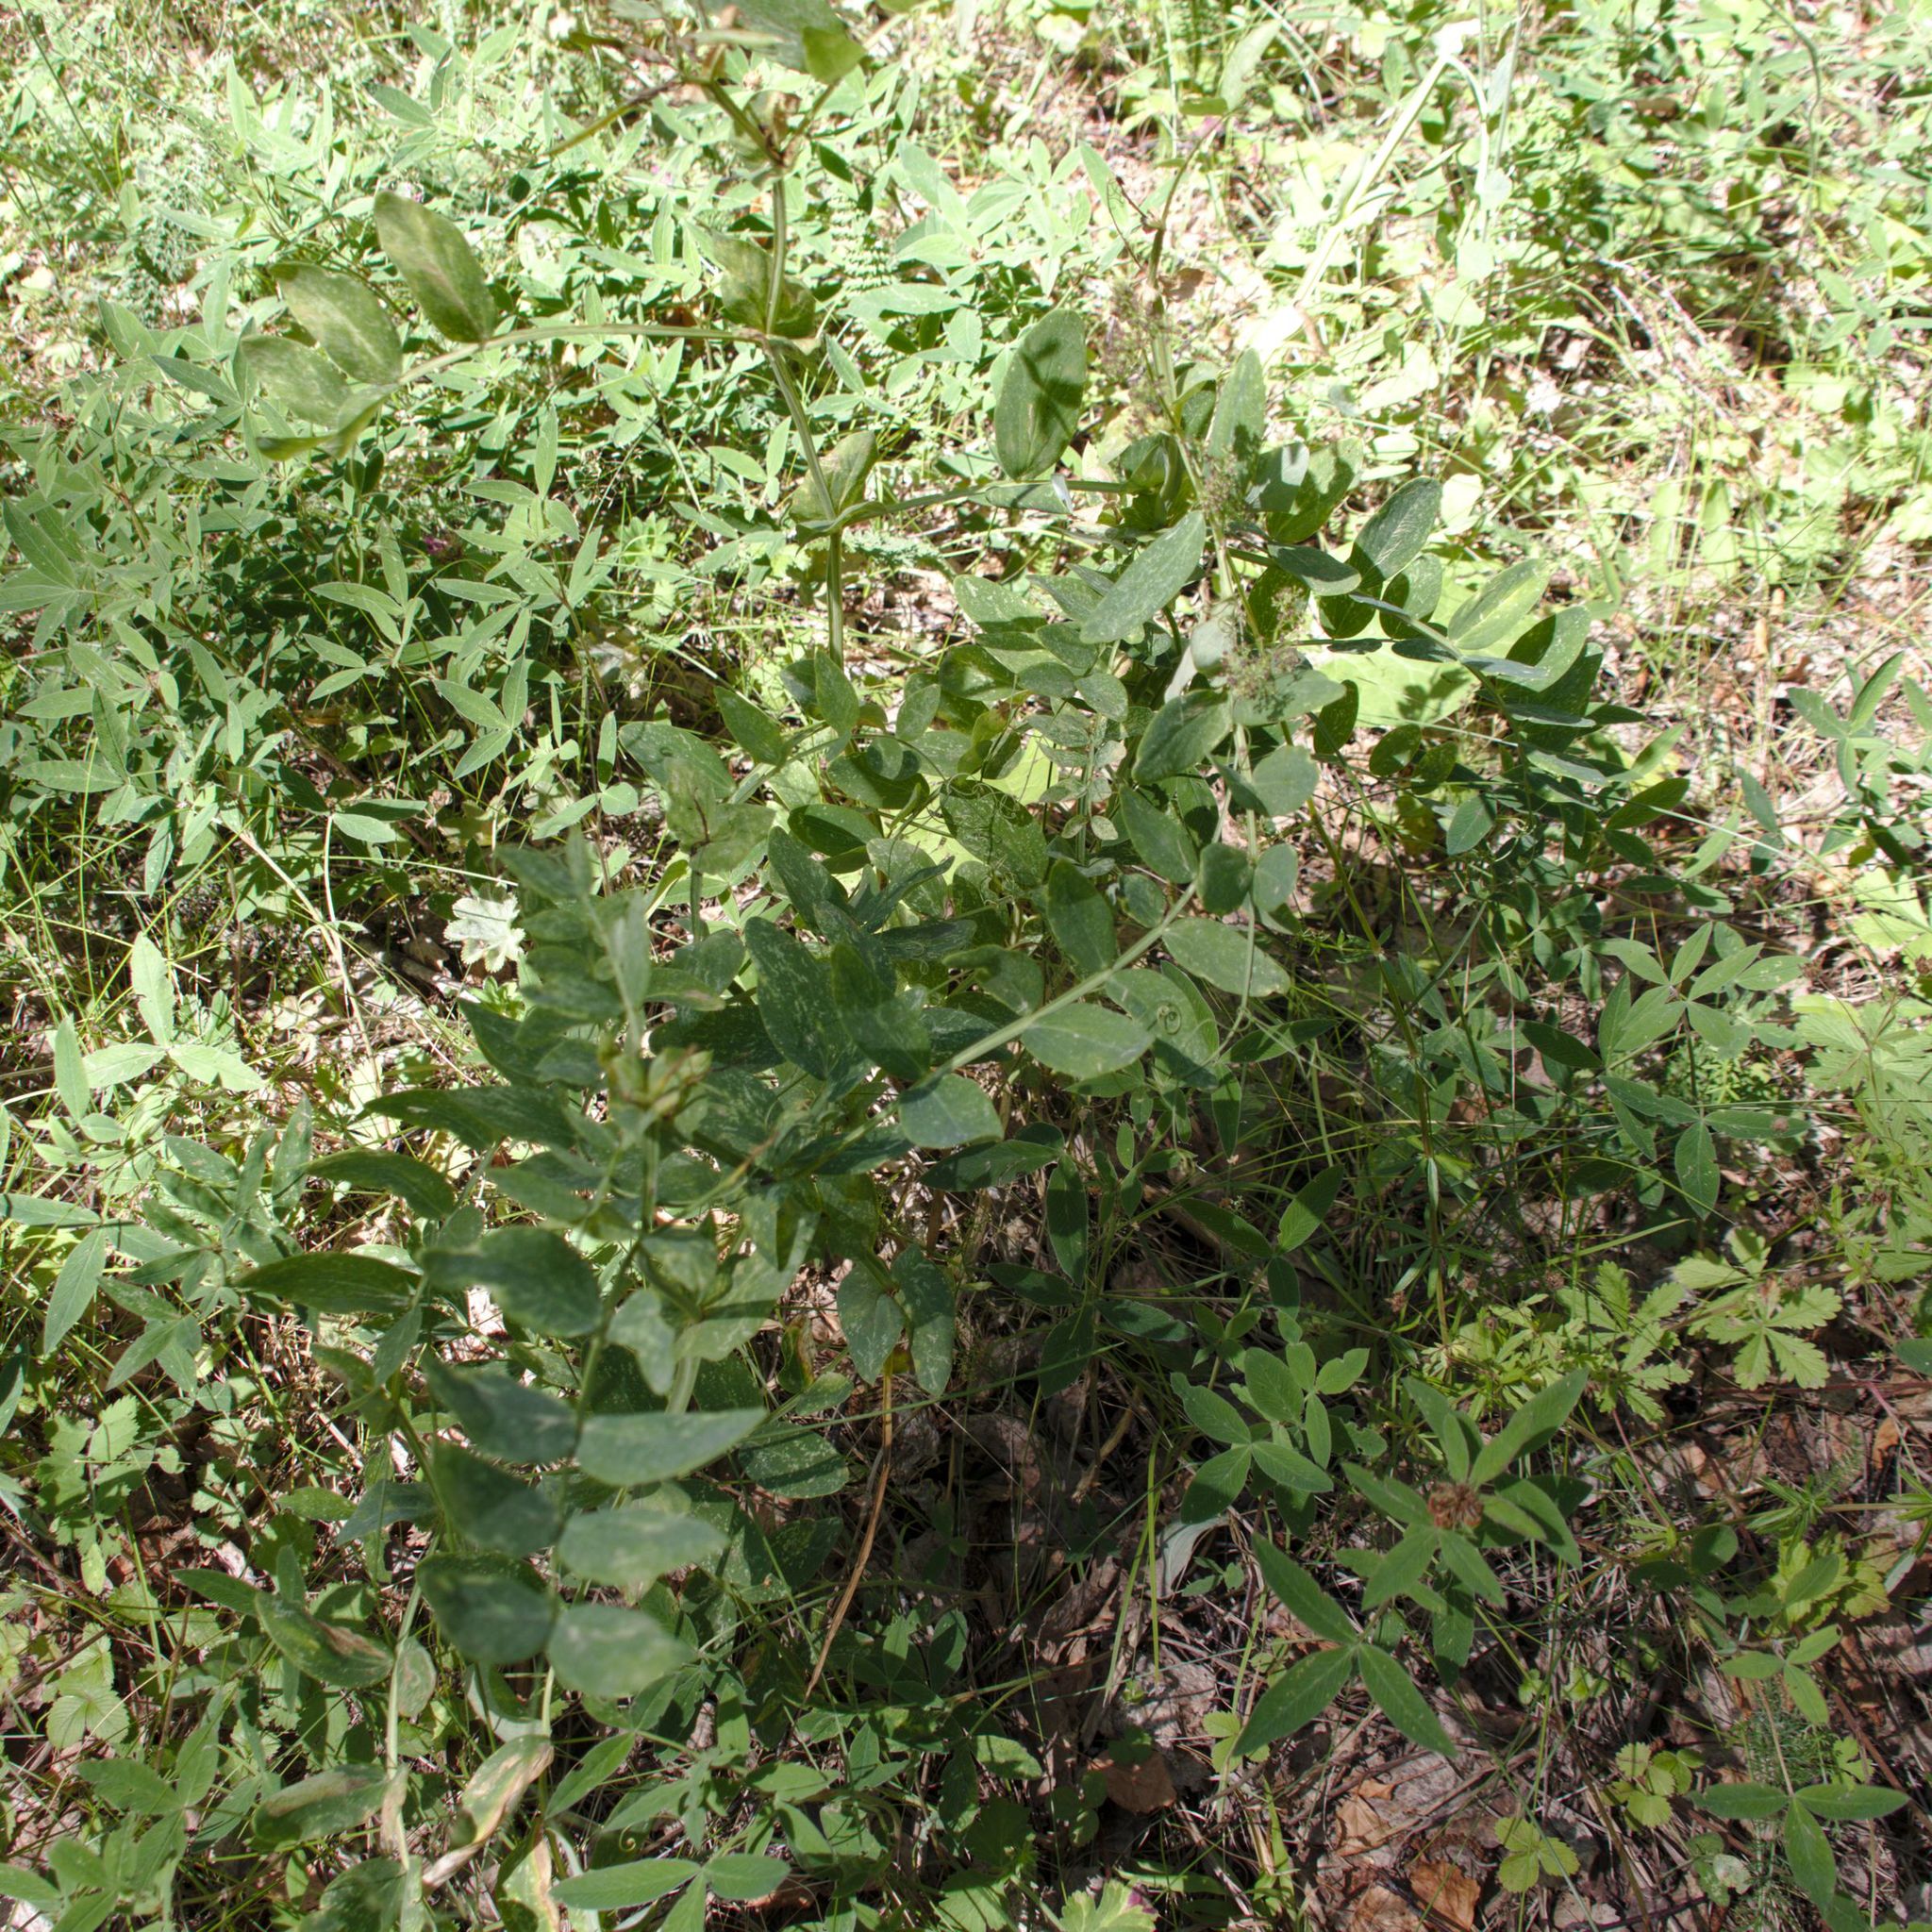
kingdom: Plantae
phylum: Tracheophyta
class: Magnoliopsida
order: Fabales
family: Fabaceae
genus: Vicia
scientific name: Vicia sepium
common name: Bush vetch
